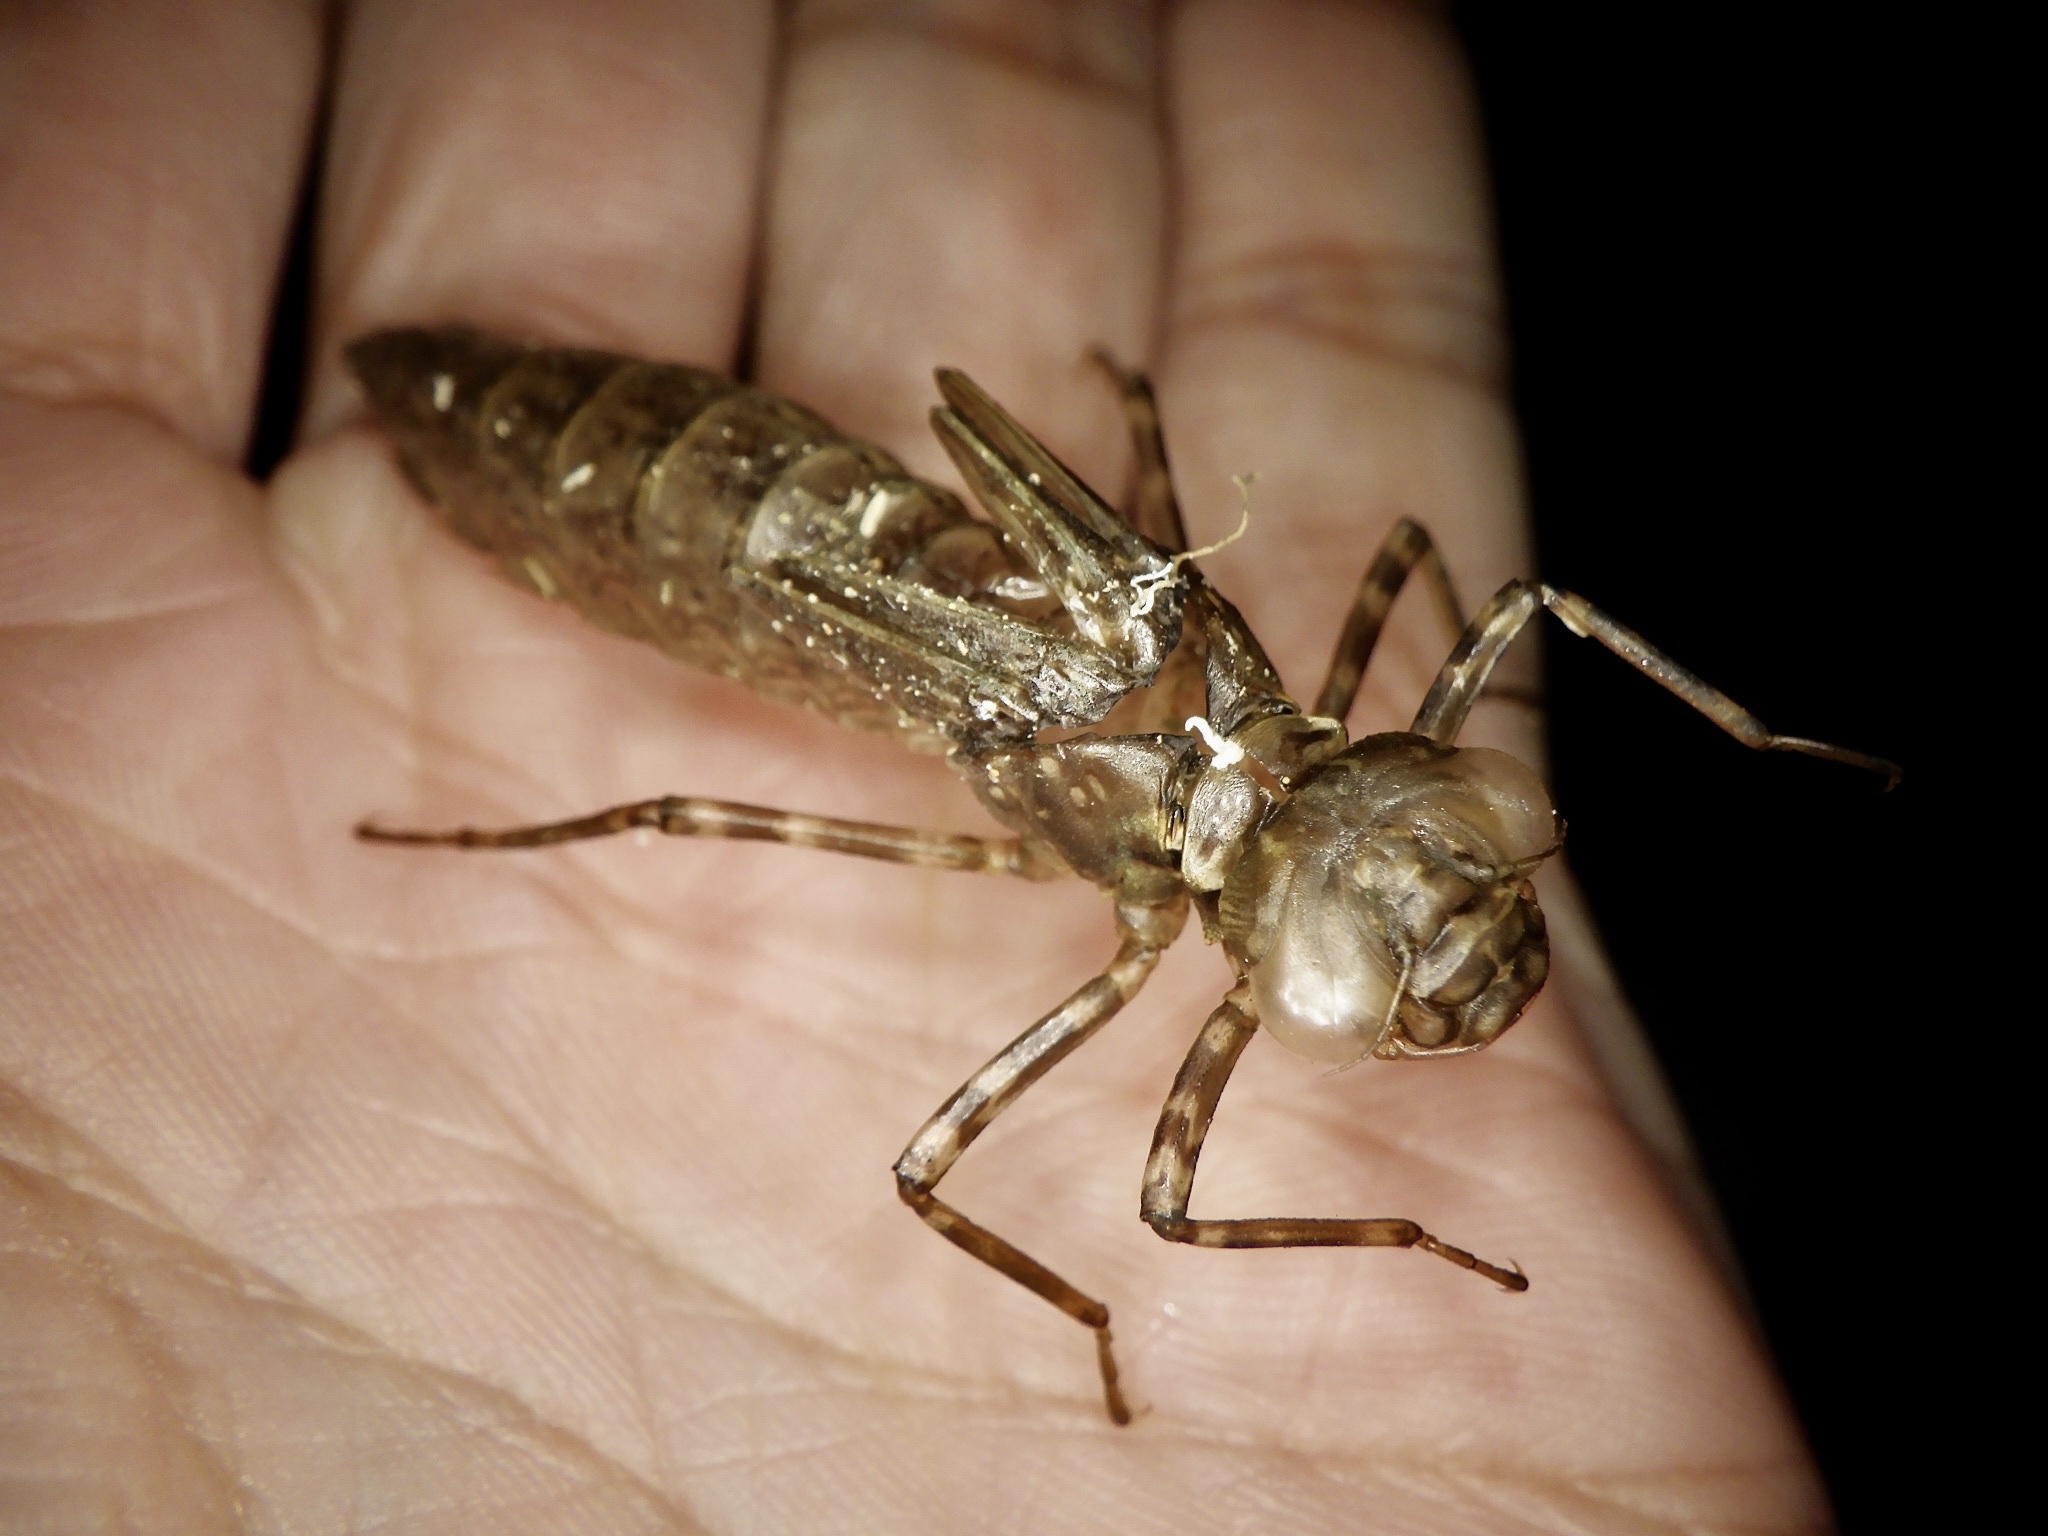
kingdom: Animalia
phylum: Arthropoda
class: Insecta
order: Odonata
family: Aeshnidae
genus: Indaeschna
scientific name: Indaeschna
